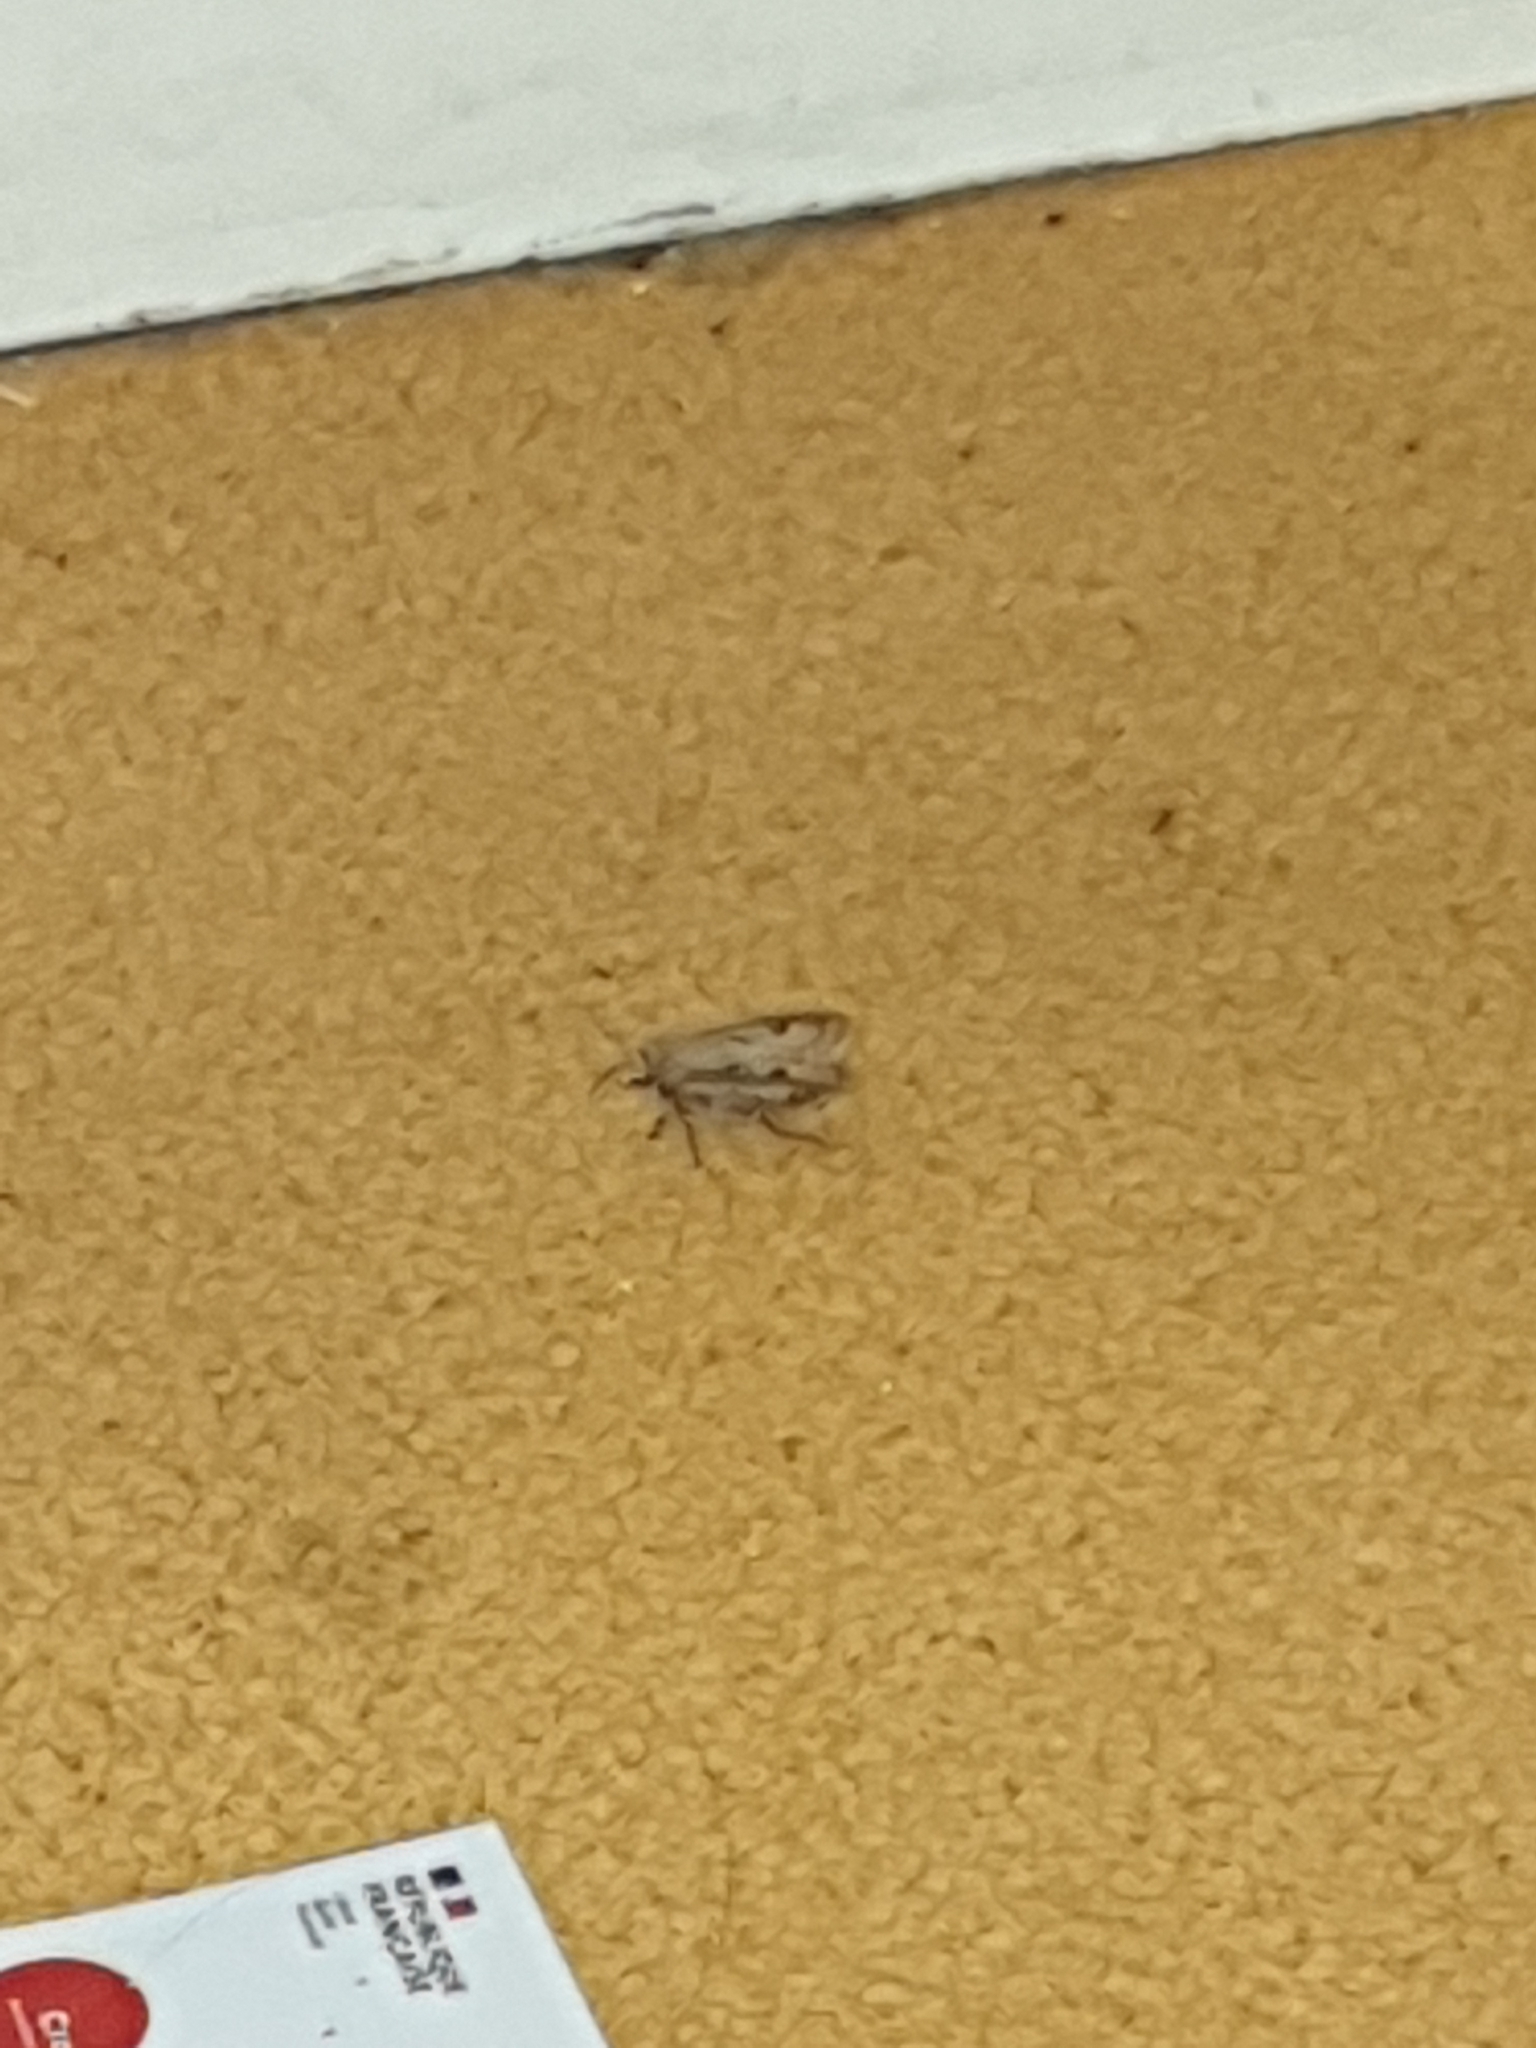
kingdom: Animalia
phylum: Arthropoda
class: Insecta
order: Lepidoptera
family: Noctuidae
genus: Agrotis
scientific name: Agrotis exclamationis
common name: Heart and dart
